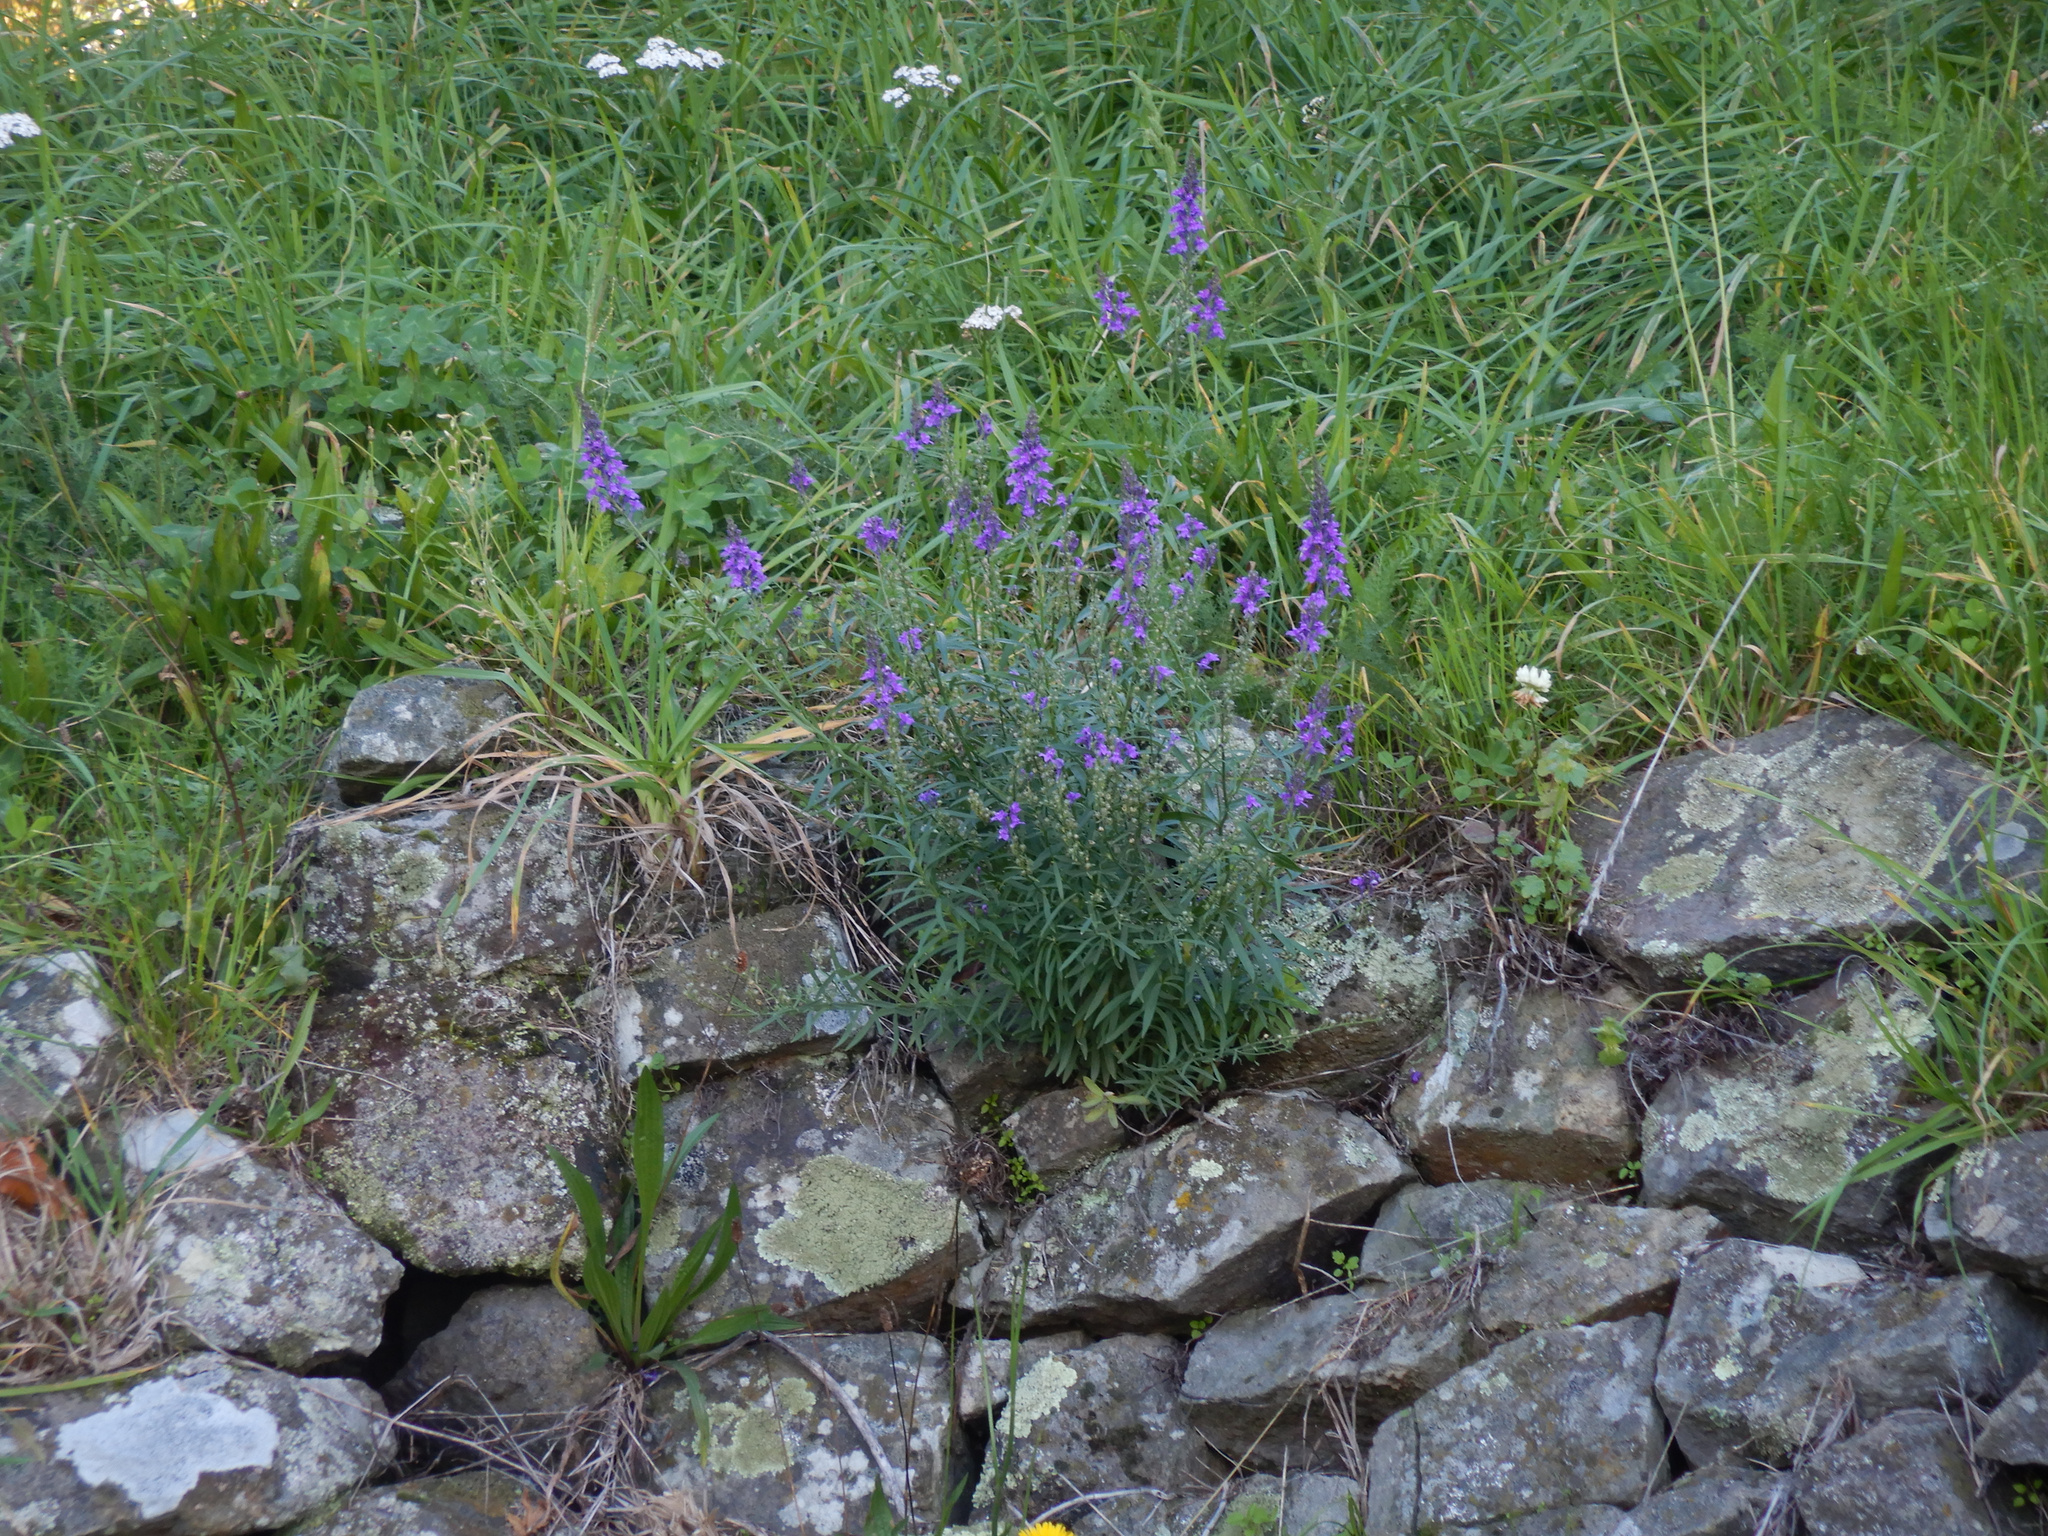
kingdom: Plantae
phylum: Tracheophyta
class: Magnoliopsida
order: Lamiales
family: Plantaginaceae
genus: Linaria
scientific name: Linaria purpurea
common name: Purple toadflax
